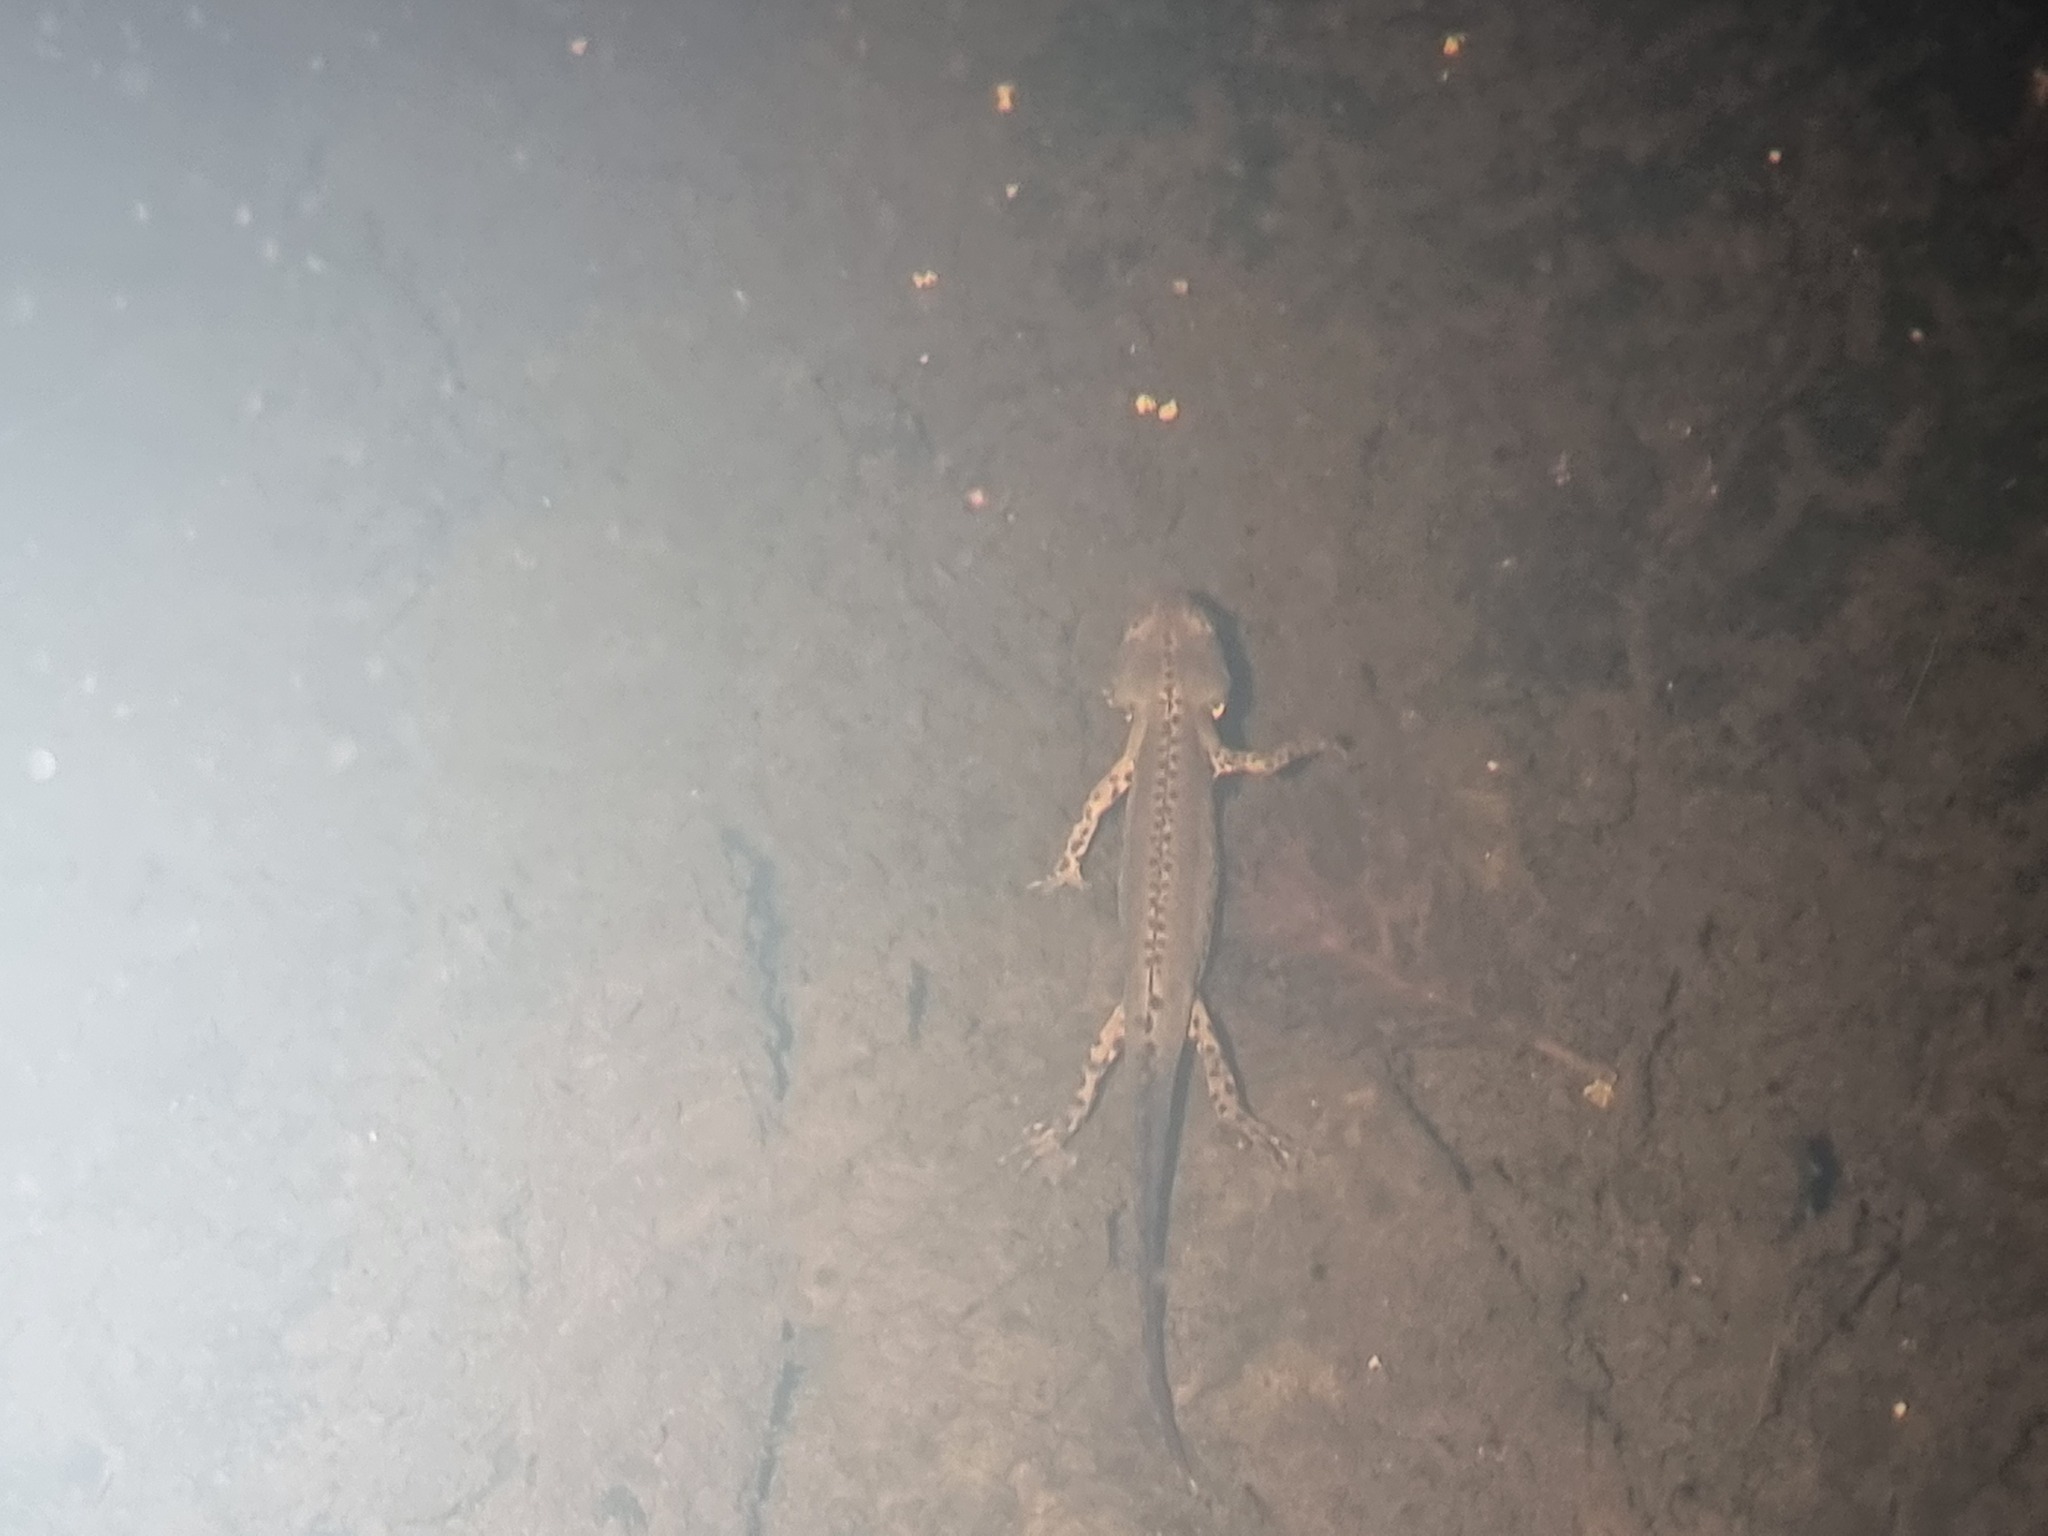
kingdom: Animalia
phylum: Chordata
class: Amphibia
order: Caudata
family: Salamandridae
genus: Ichthyosaura
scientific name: Ichthyosaura alpestris
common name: Alpine newt
